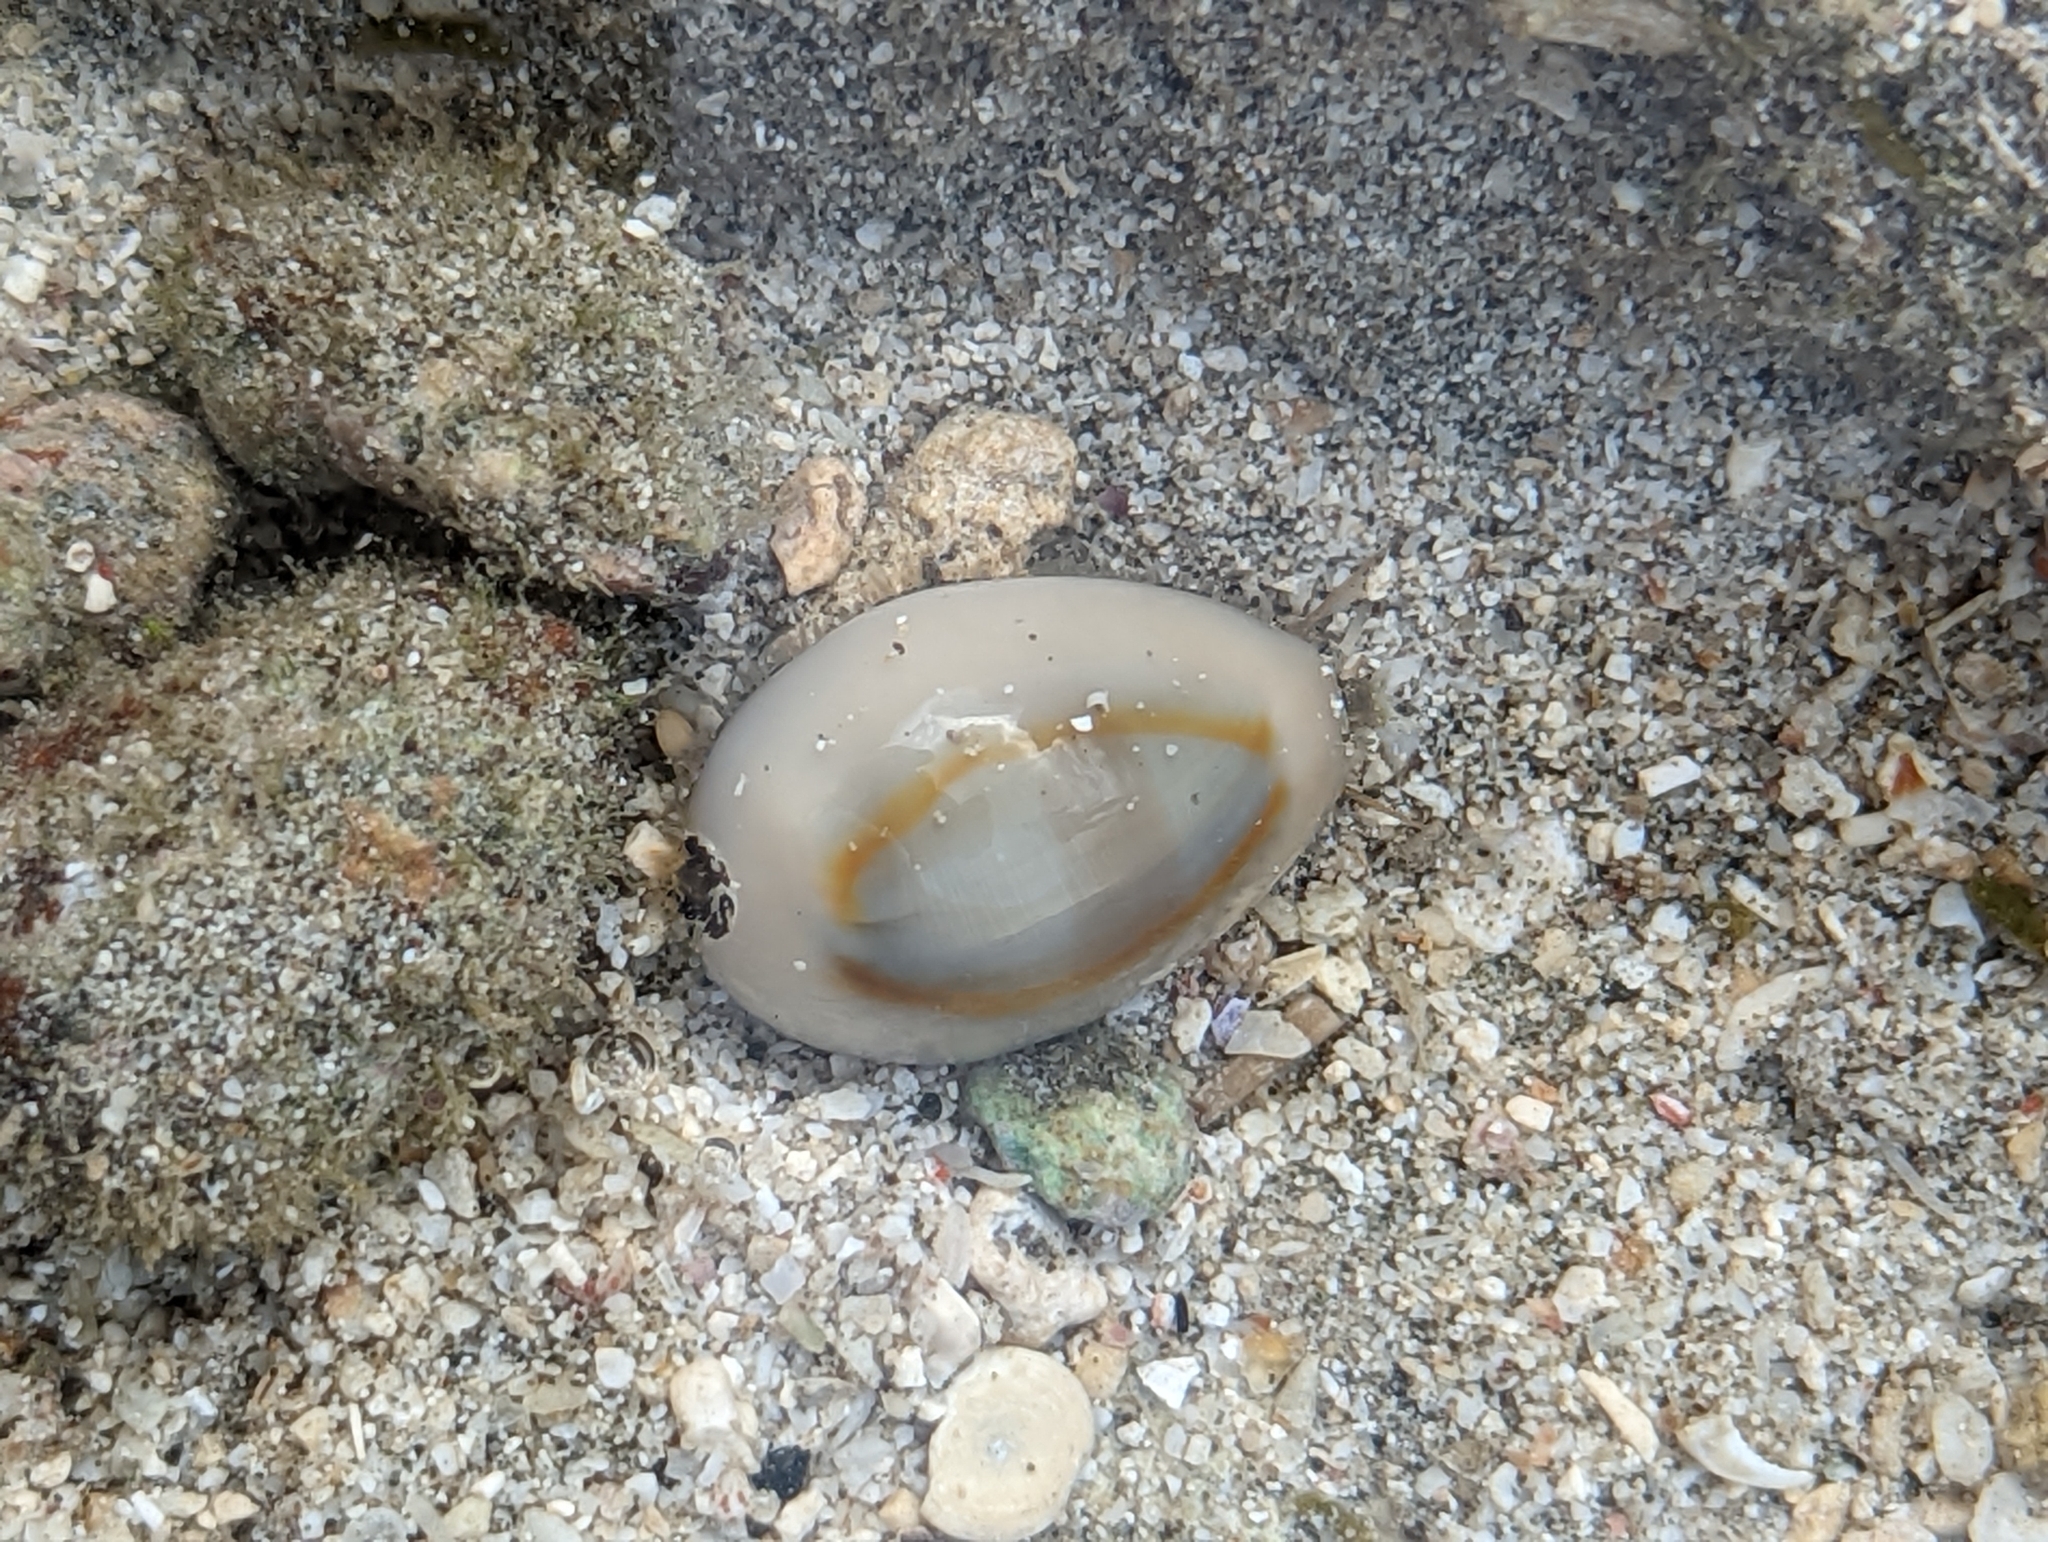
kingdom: Animalia
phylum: Mollusca
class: Gastropoda
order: Littorinimorpha
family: Cypraeidae
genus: Monetaria
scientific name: Monetaria annulus
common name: Ring cowrie
